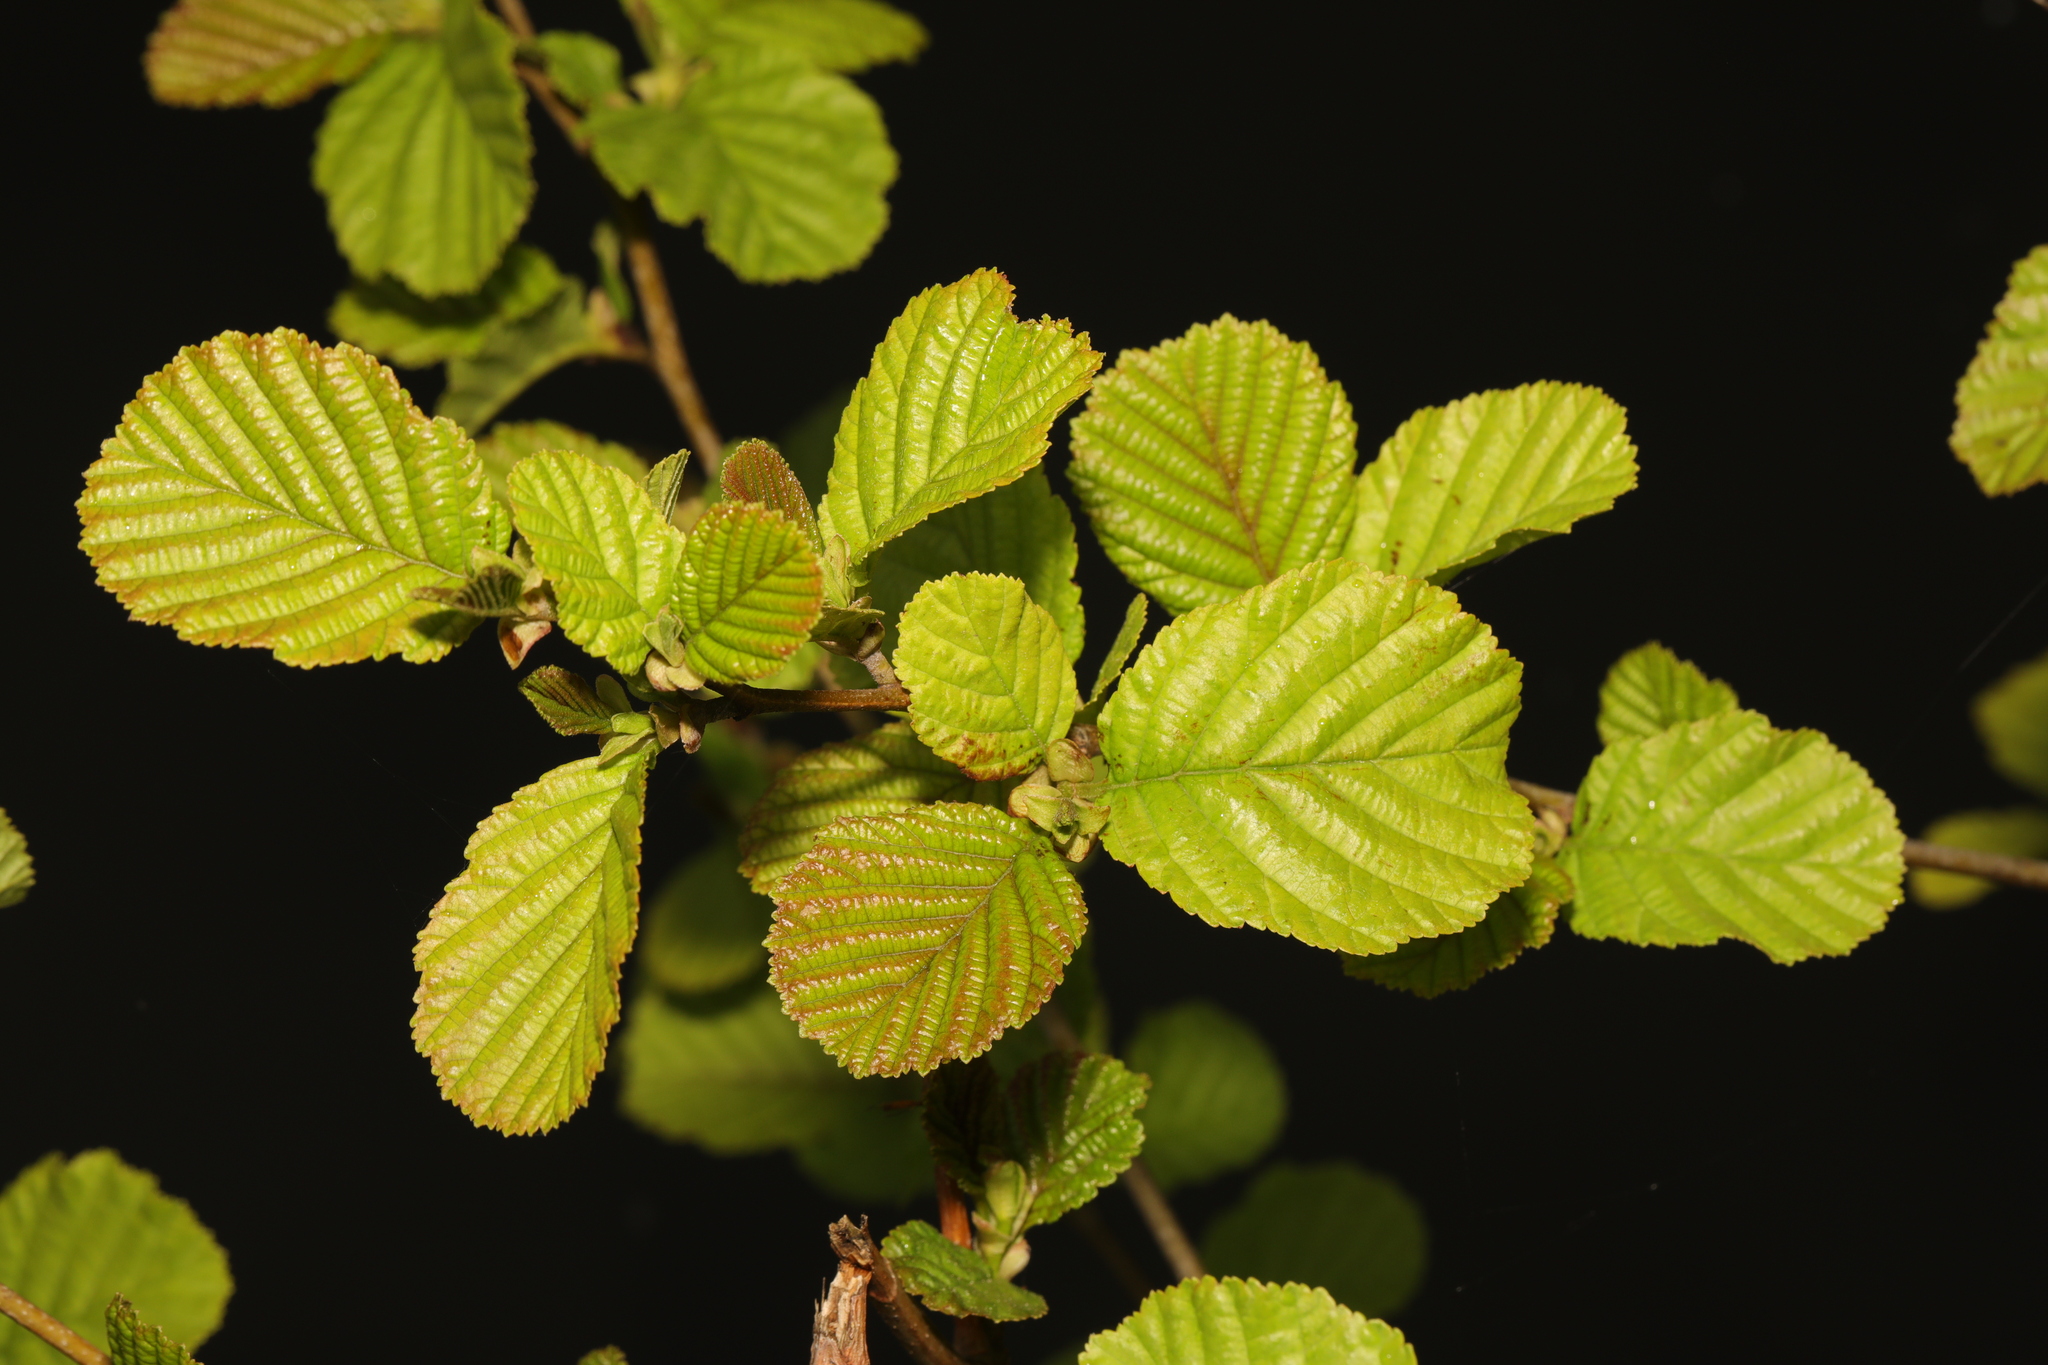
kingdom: Plantae
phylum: Tracheophyta
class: Magnoliopsida
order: Fagales
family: Betulaceae
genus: Alnus
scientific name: Alnus glutinosa
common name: Black alder
